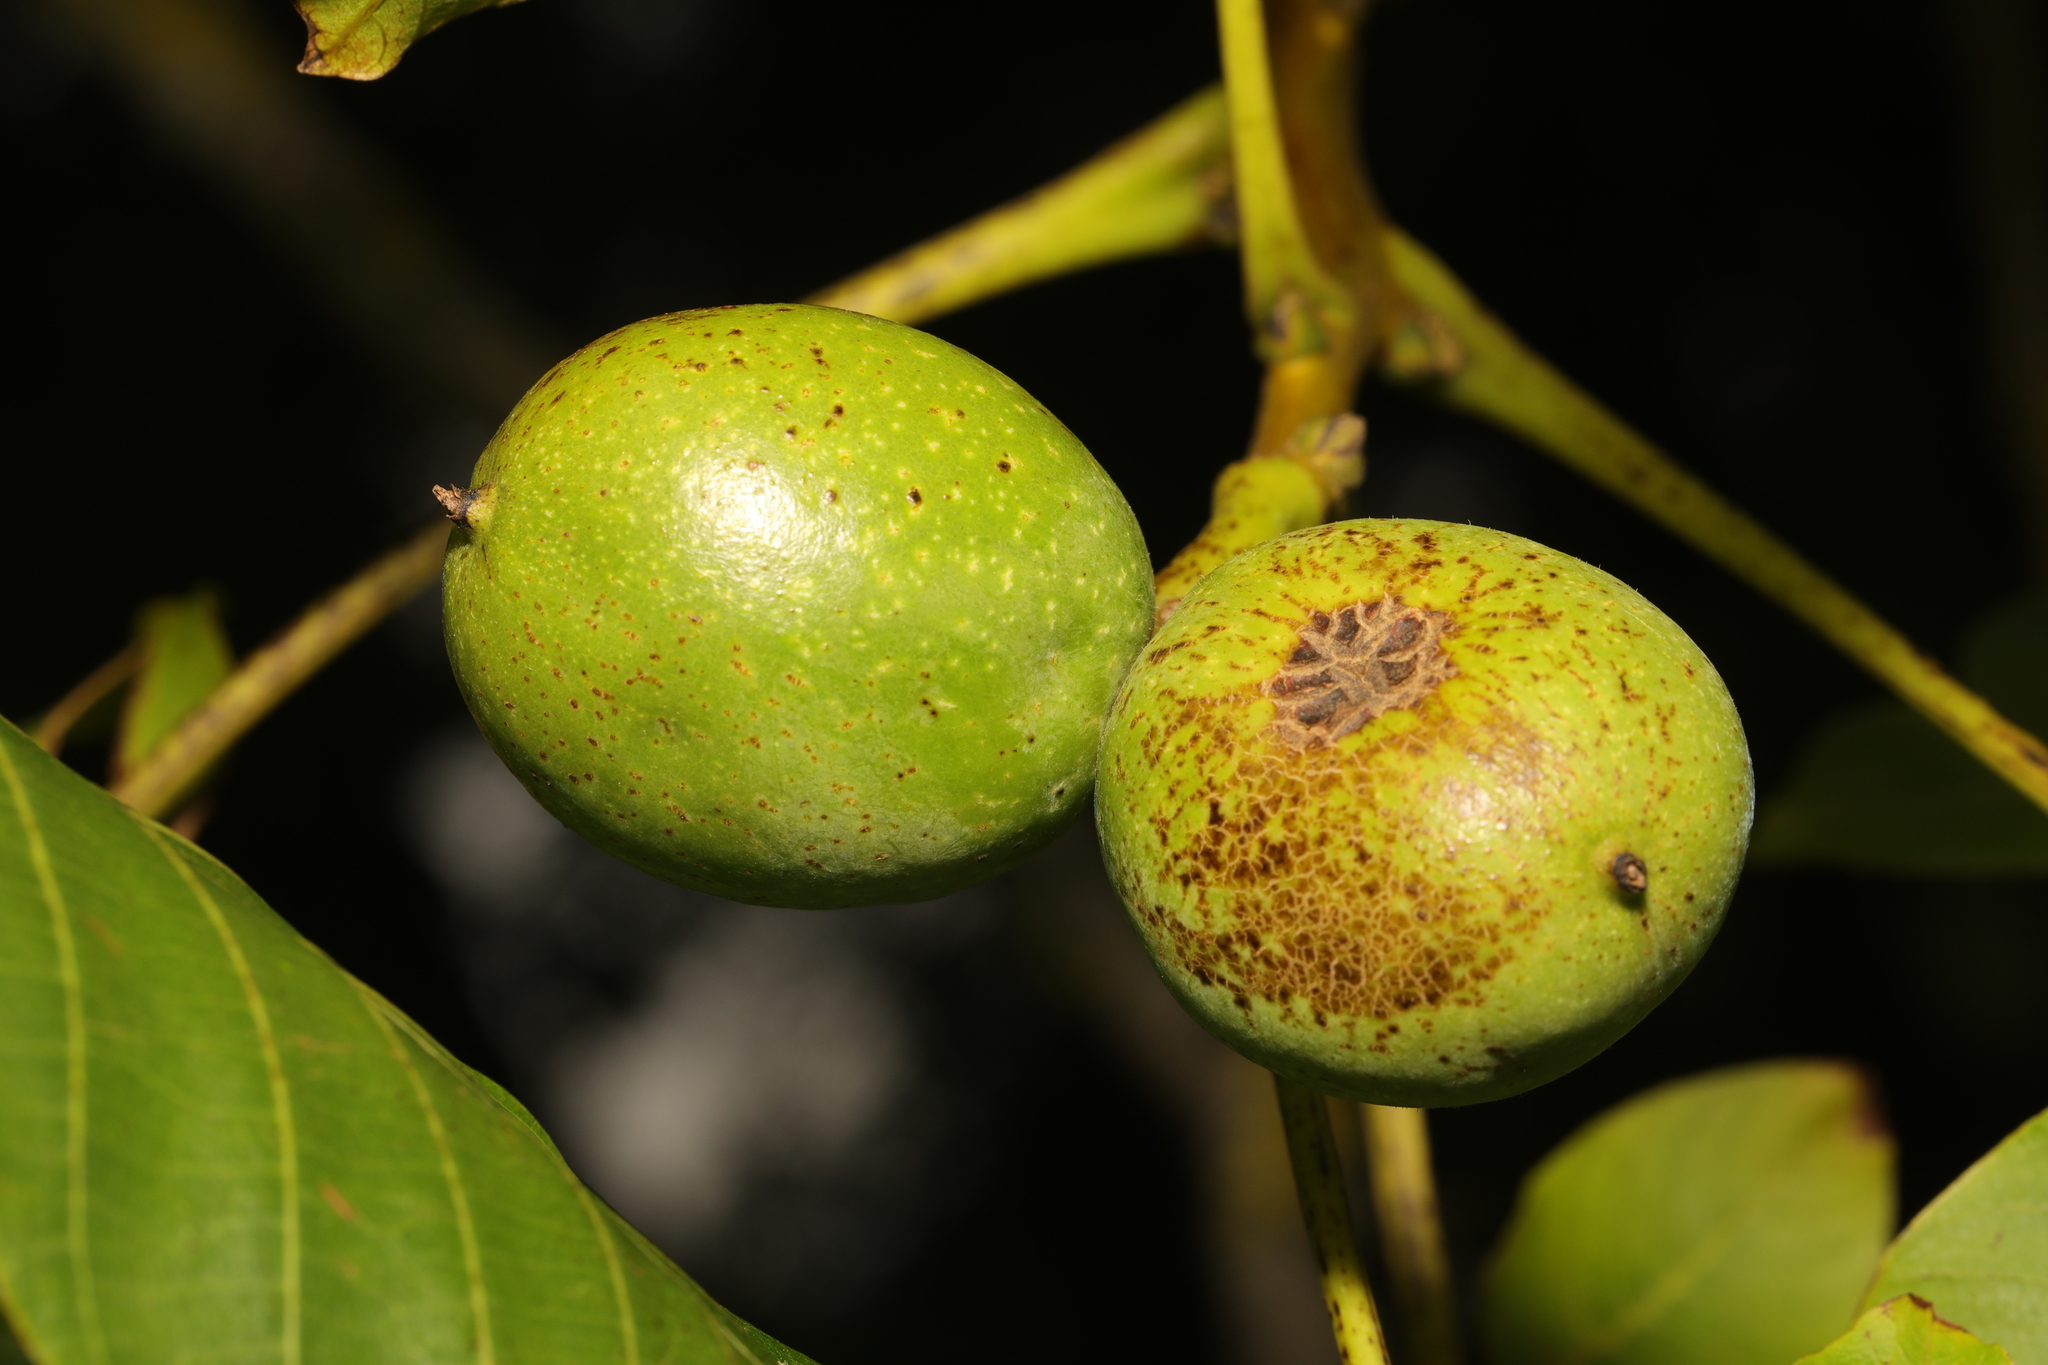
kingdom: Plantae
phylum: Tracheophyta
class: Magnoliopsida
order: Fagales
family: Juglandaceae
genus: Juglans
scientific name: Juglans regia
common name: Walnut
